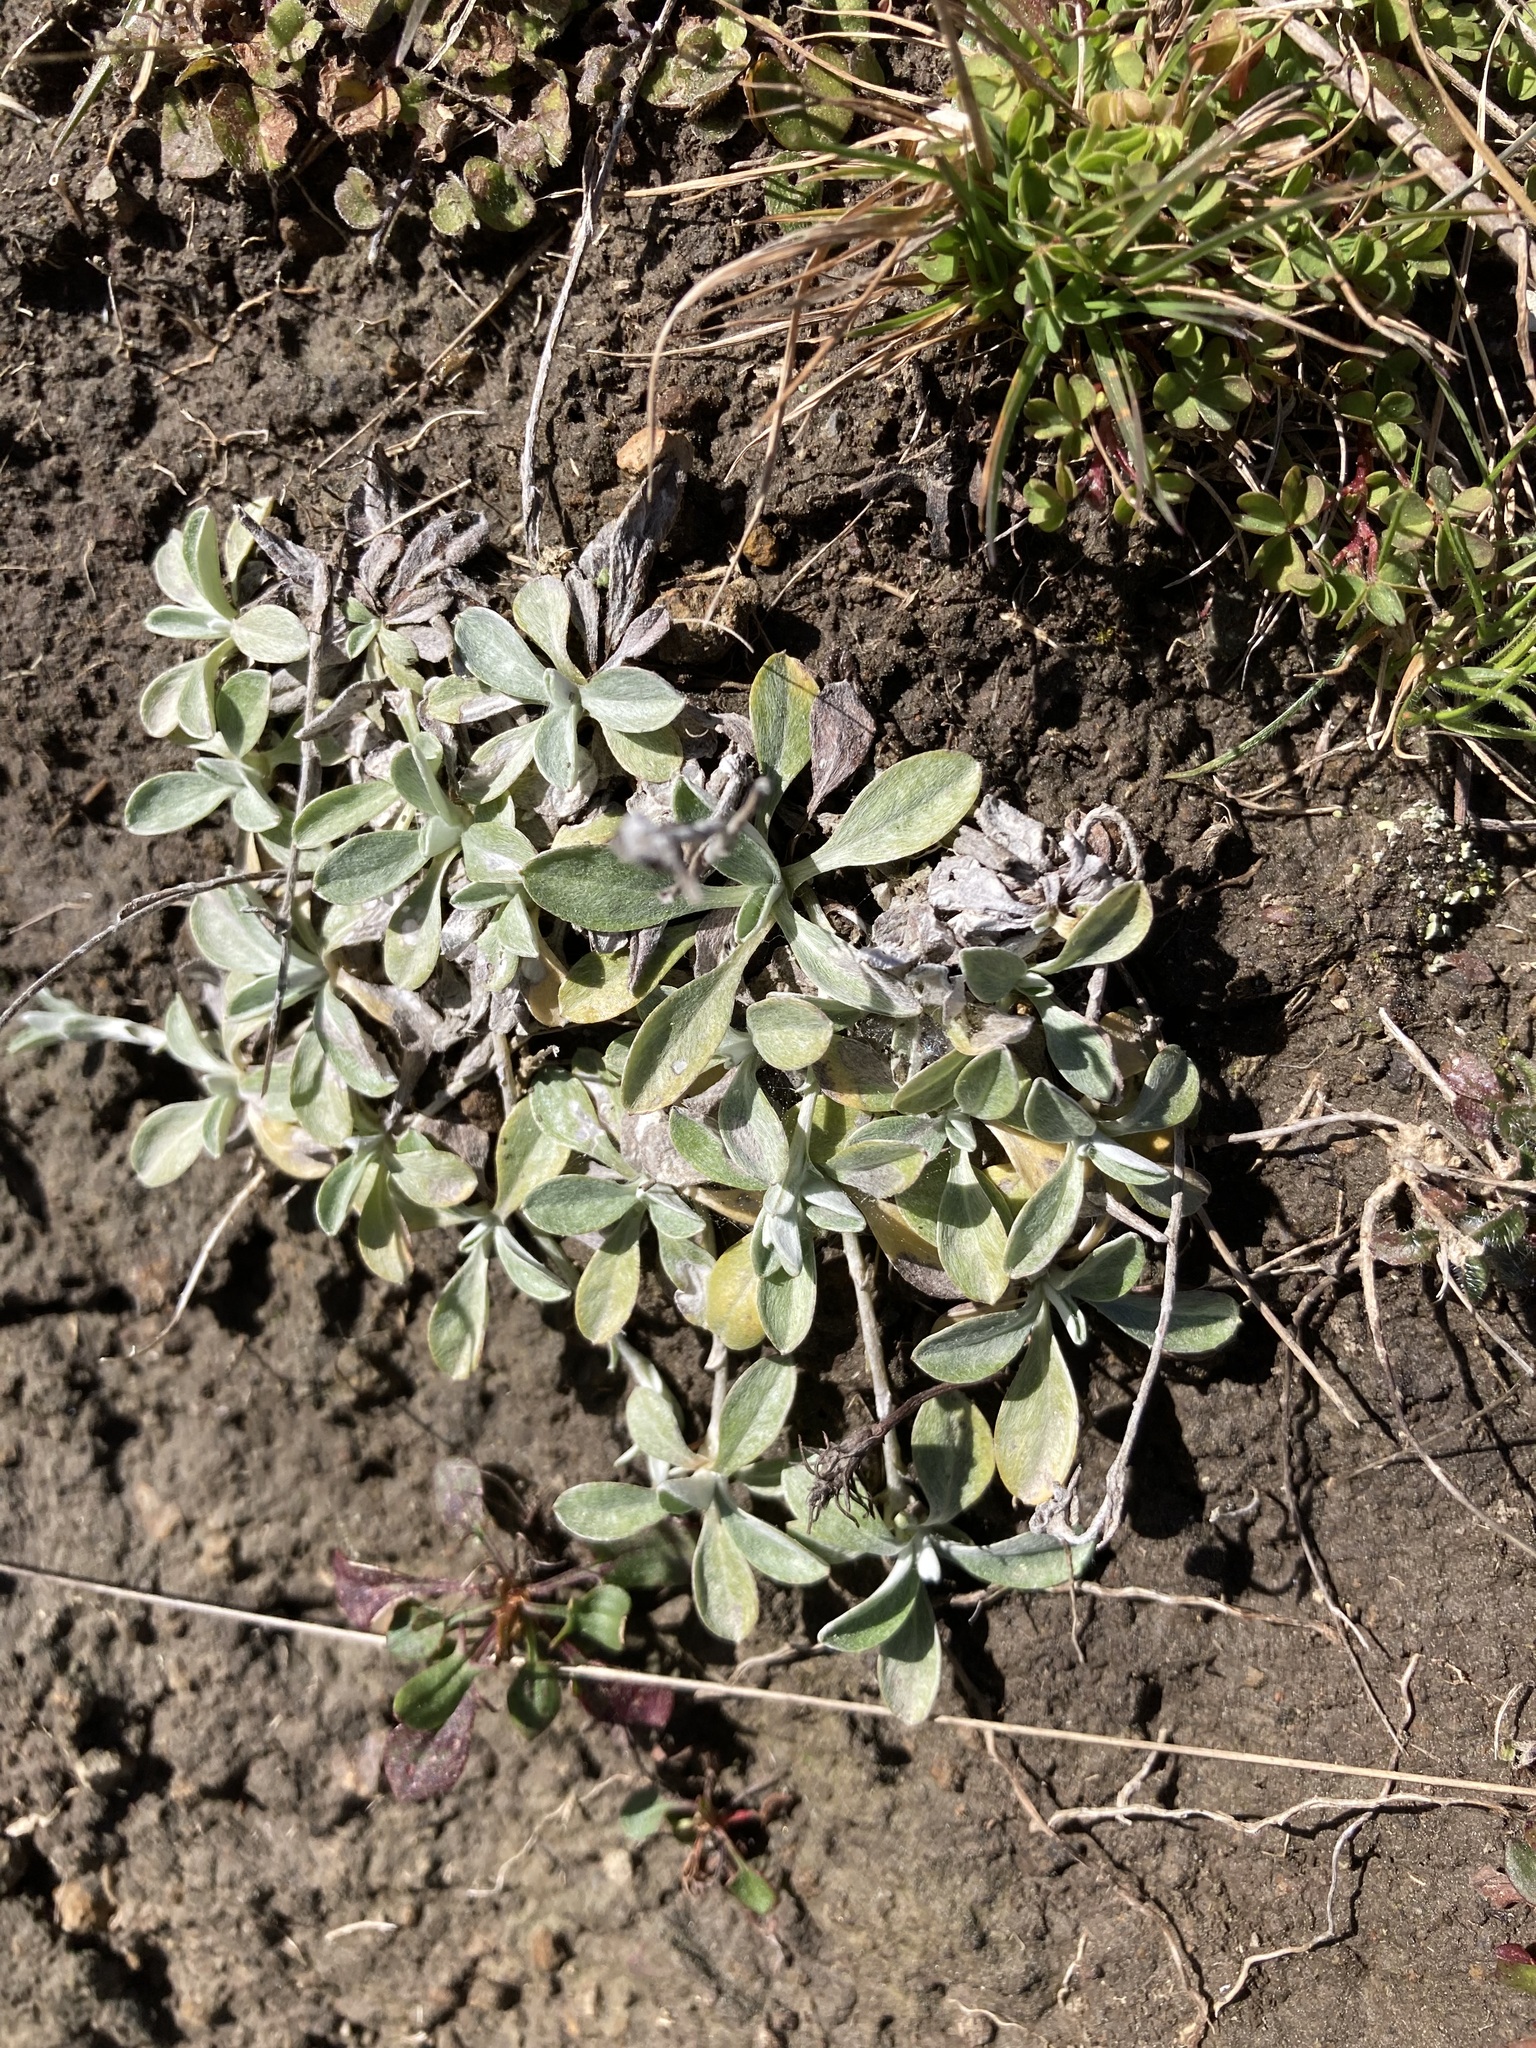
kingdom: Plantae
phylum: Tracheophyta
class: Magnoliopsida
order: Asterales
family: Asteraceae
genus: Euchiton
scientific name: Euchiton audax
